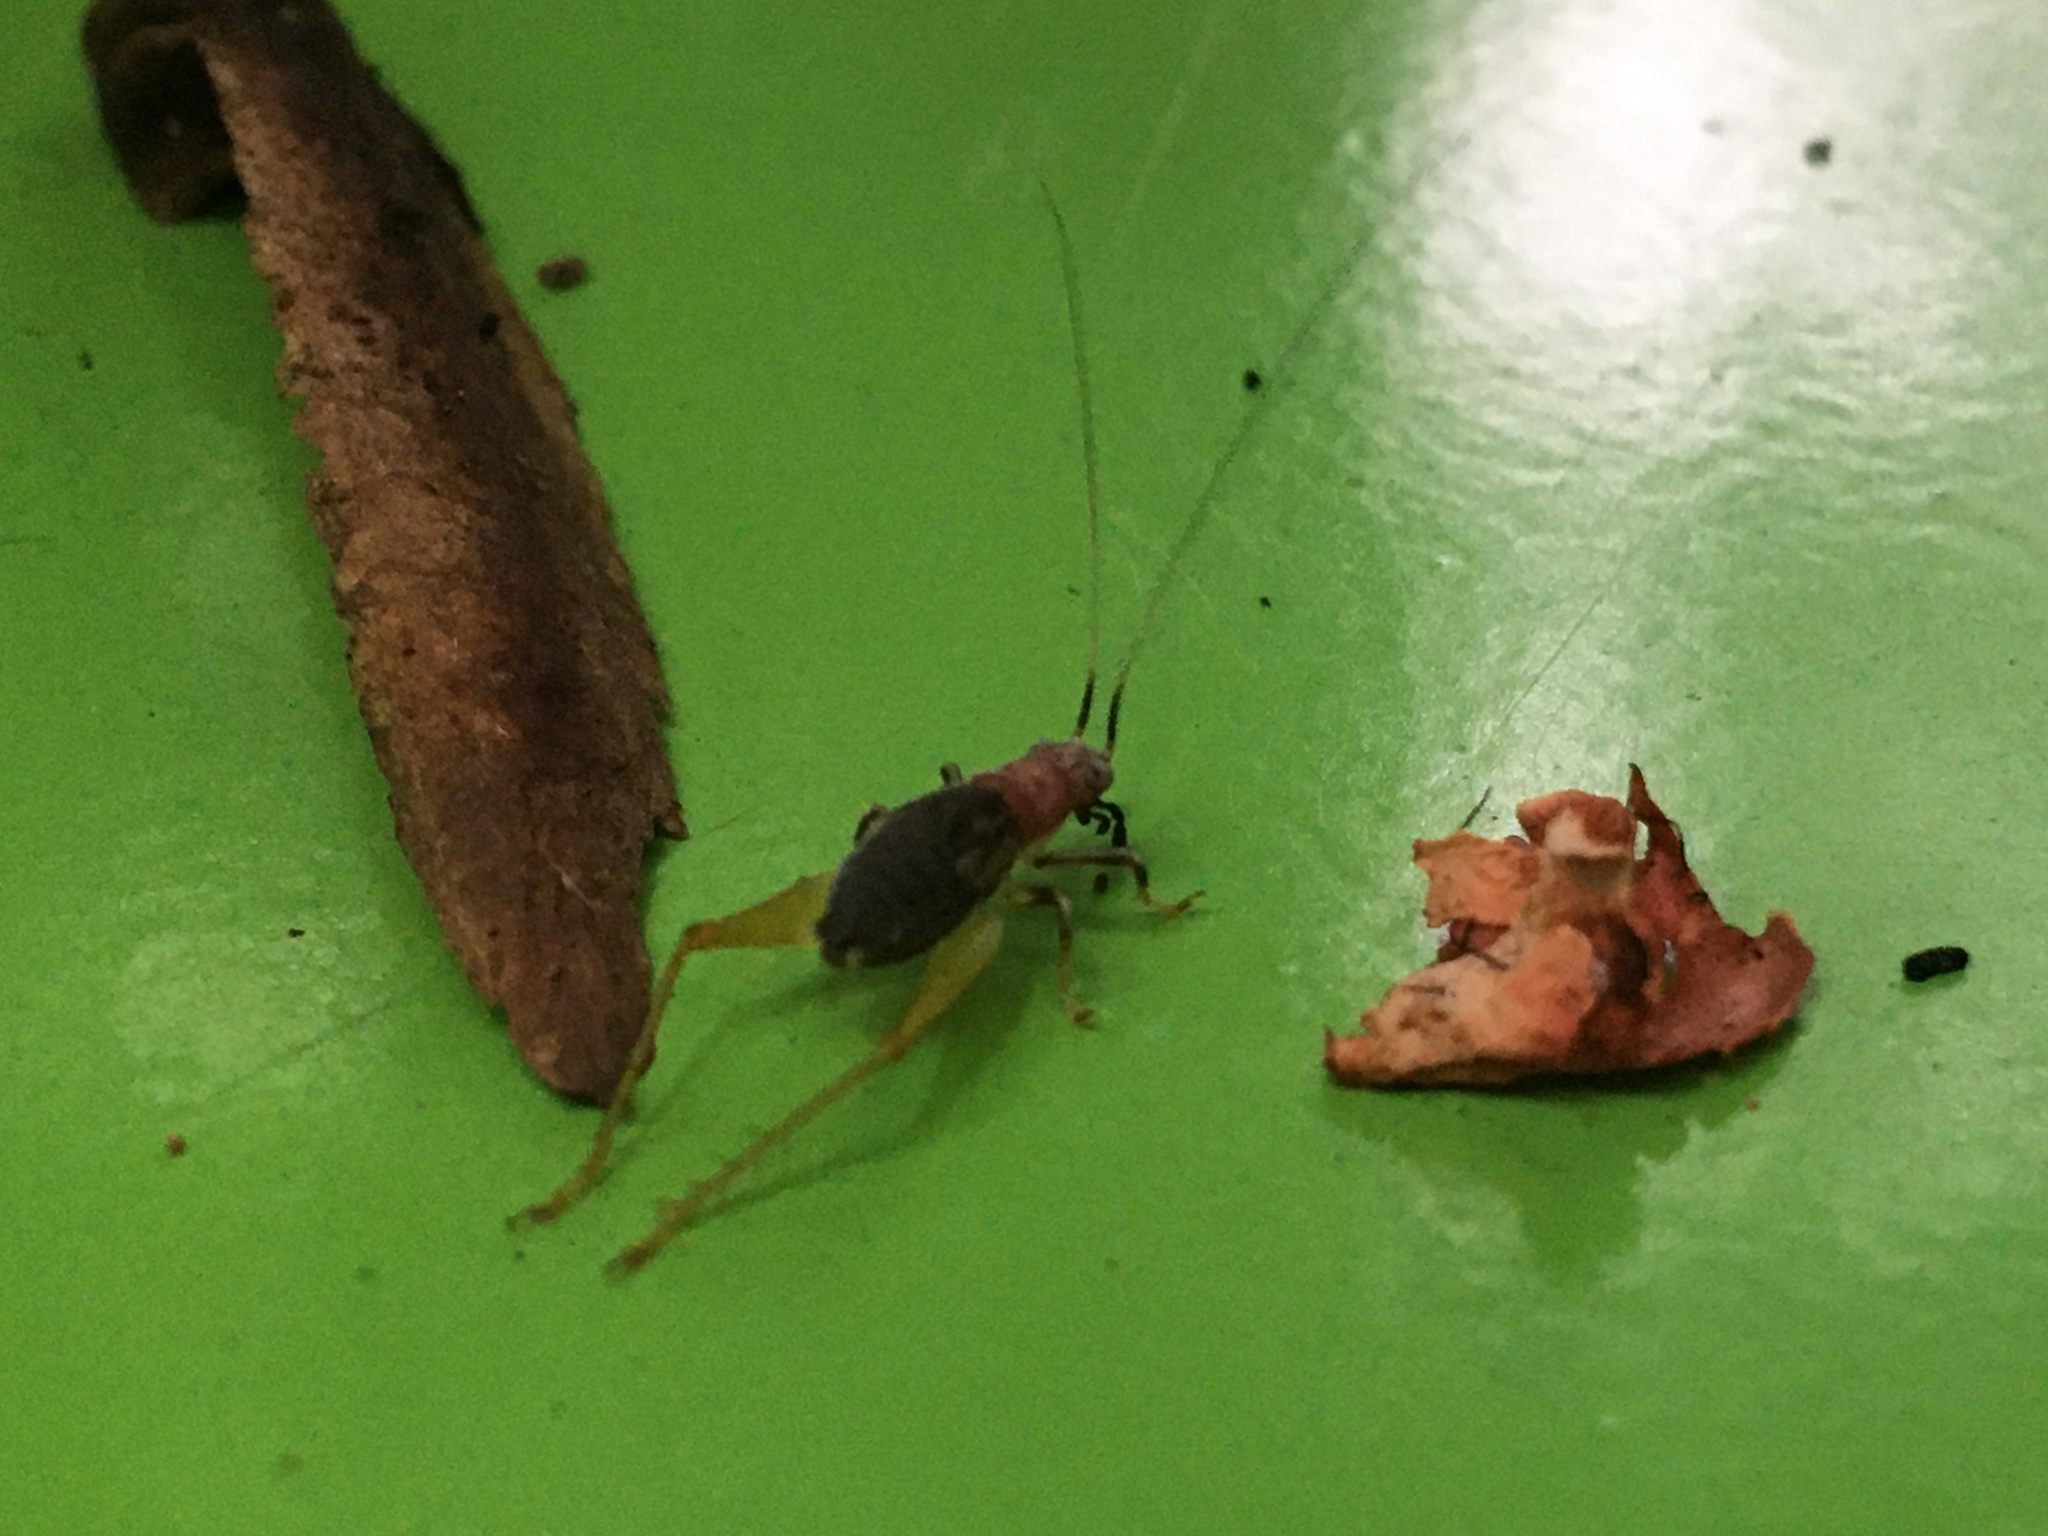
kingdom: Animalia
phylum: Arthropoda
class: Insecta
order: Orthoptera
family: Trigonidiidae
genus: Phyllopalpus
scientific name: Phyllopalpus pulchellus
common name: Handsome trig
